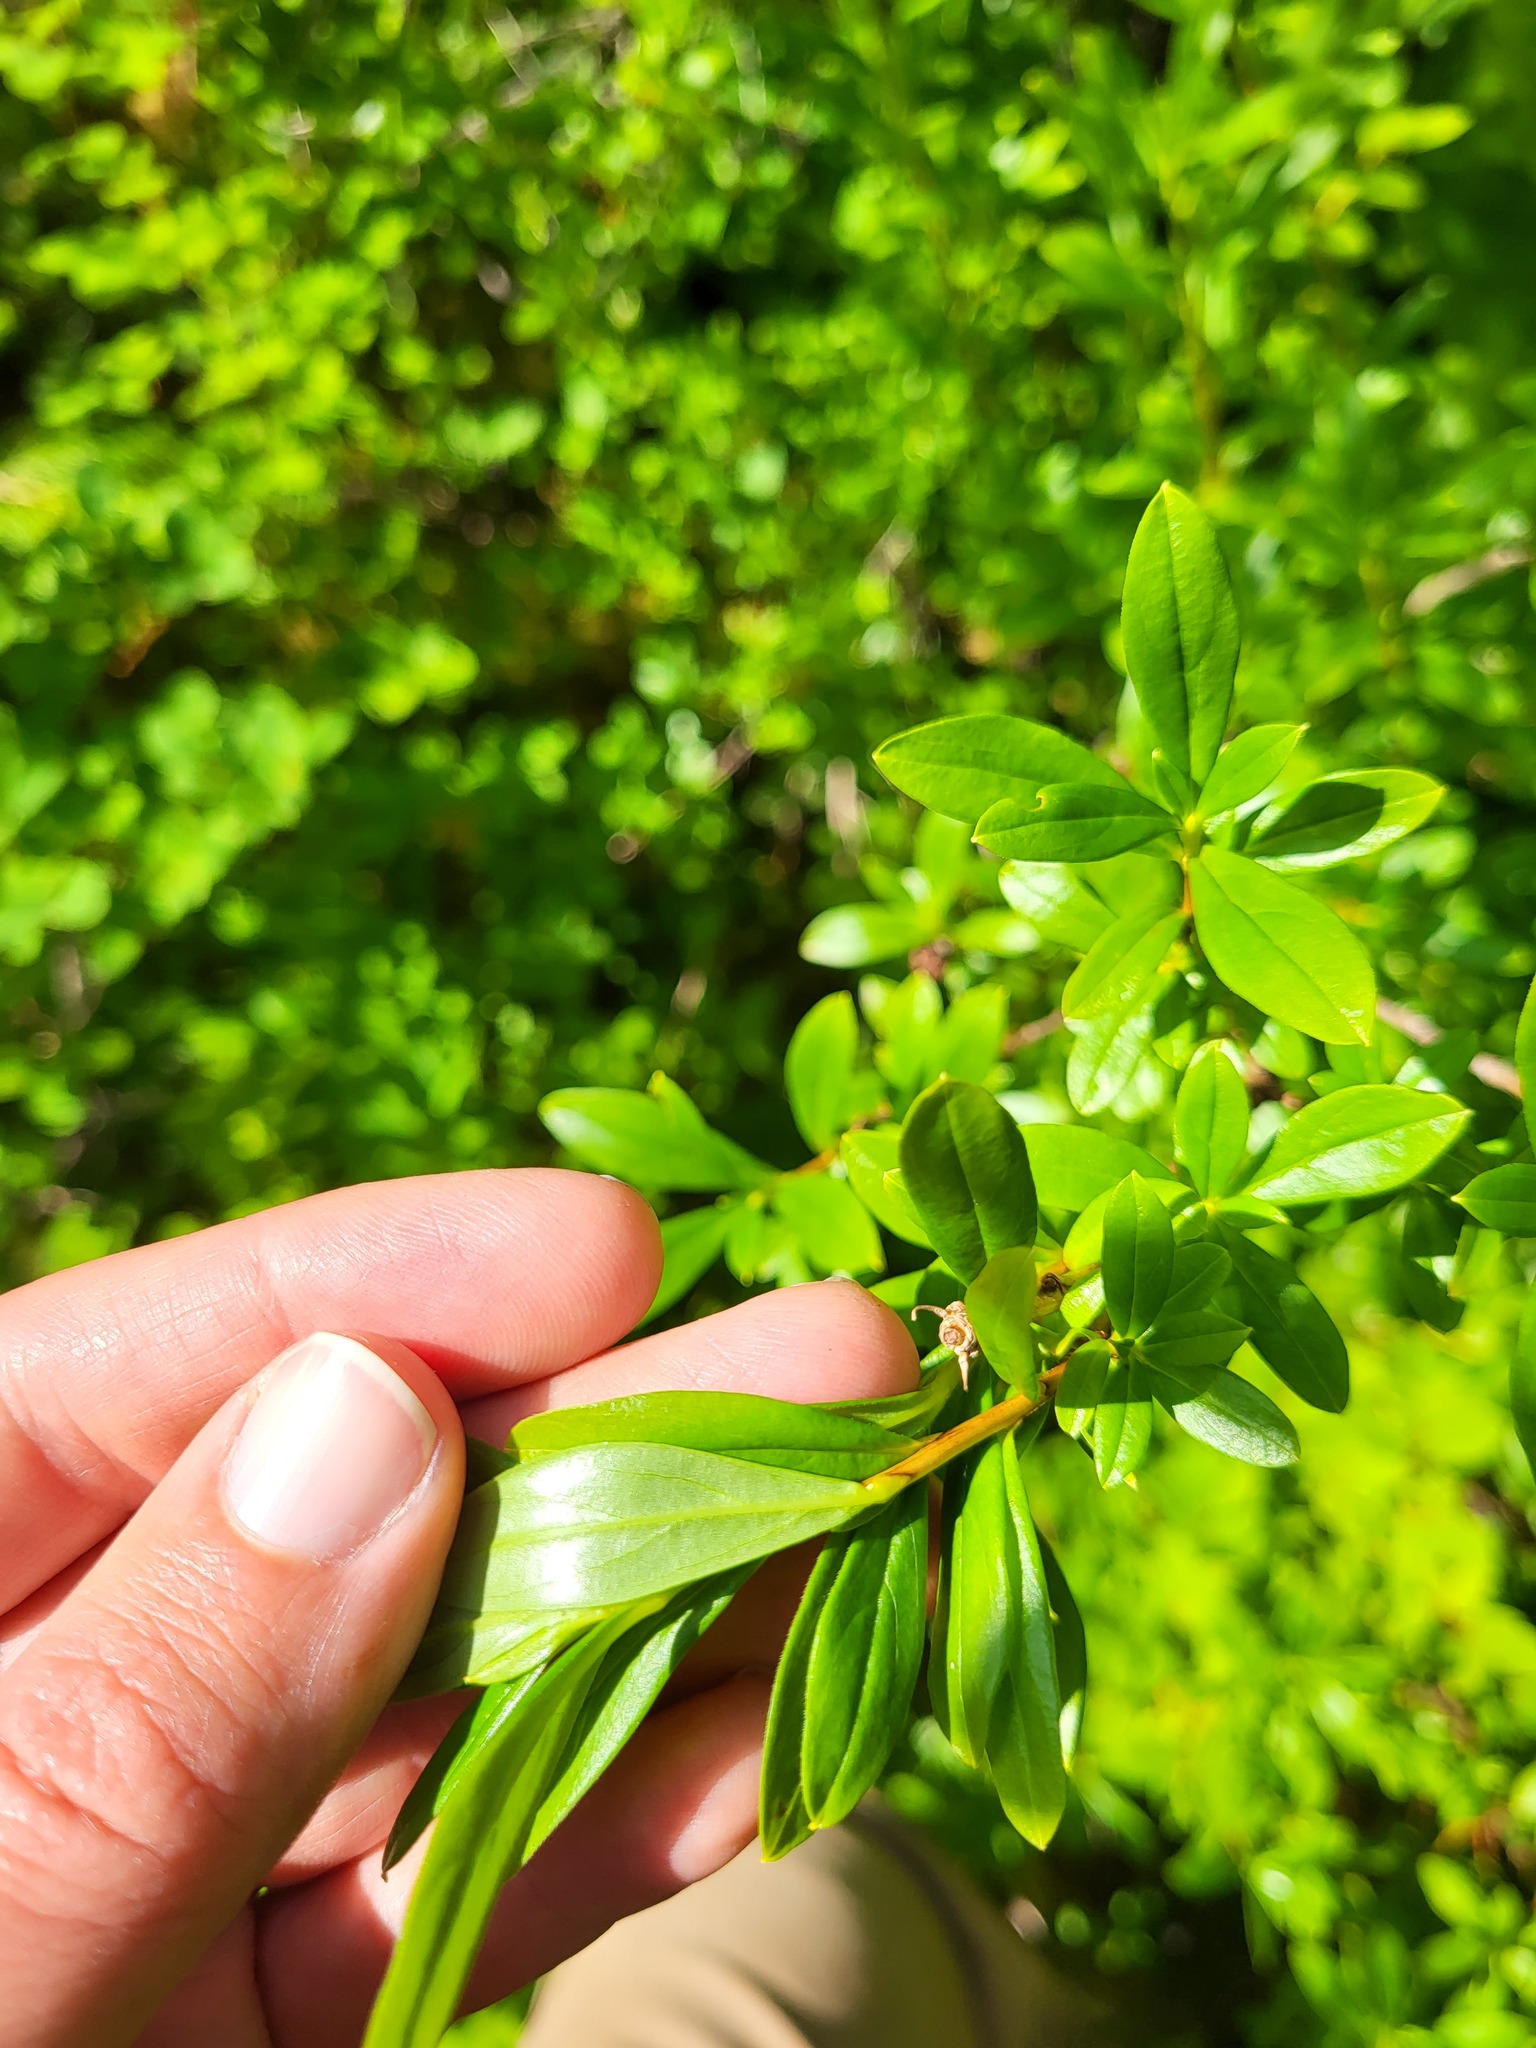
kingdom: Plantae
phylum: Tracheophyta
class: Magnoliopsida
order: Ericales
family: Ericaceae
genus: Elliottia
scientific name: Elliottia pyroliflora
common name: Copperbush
